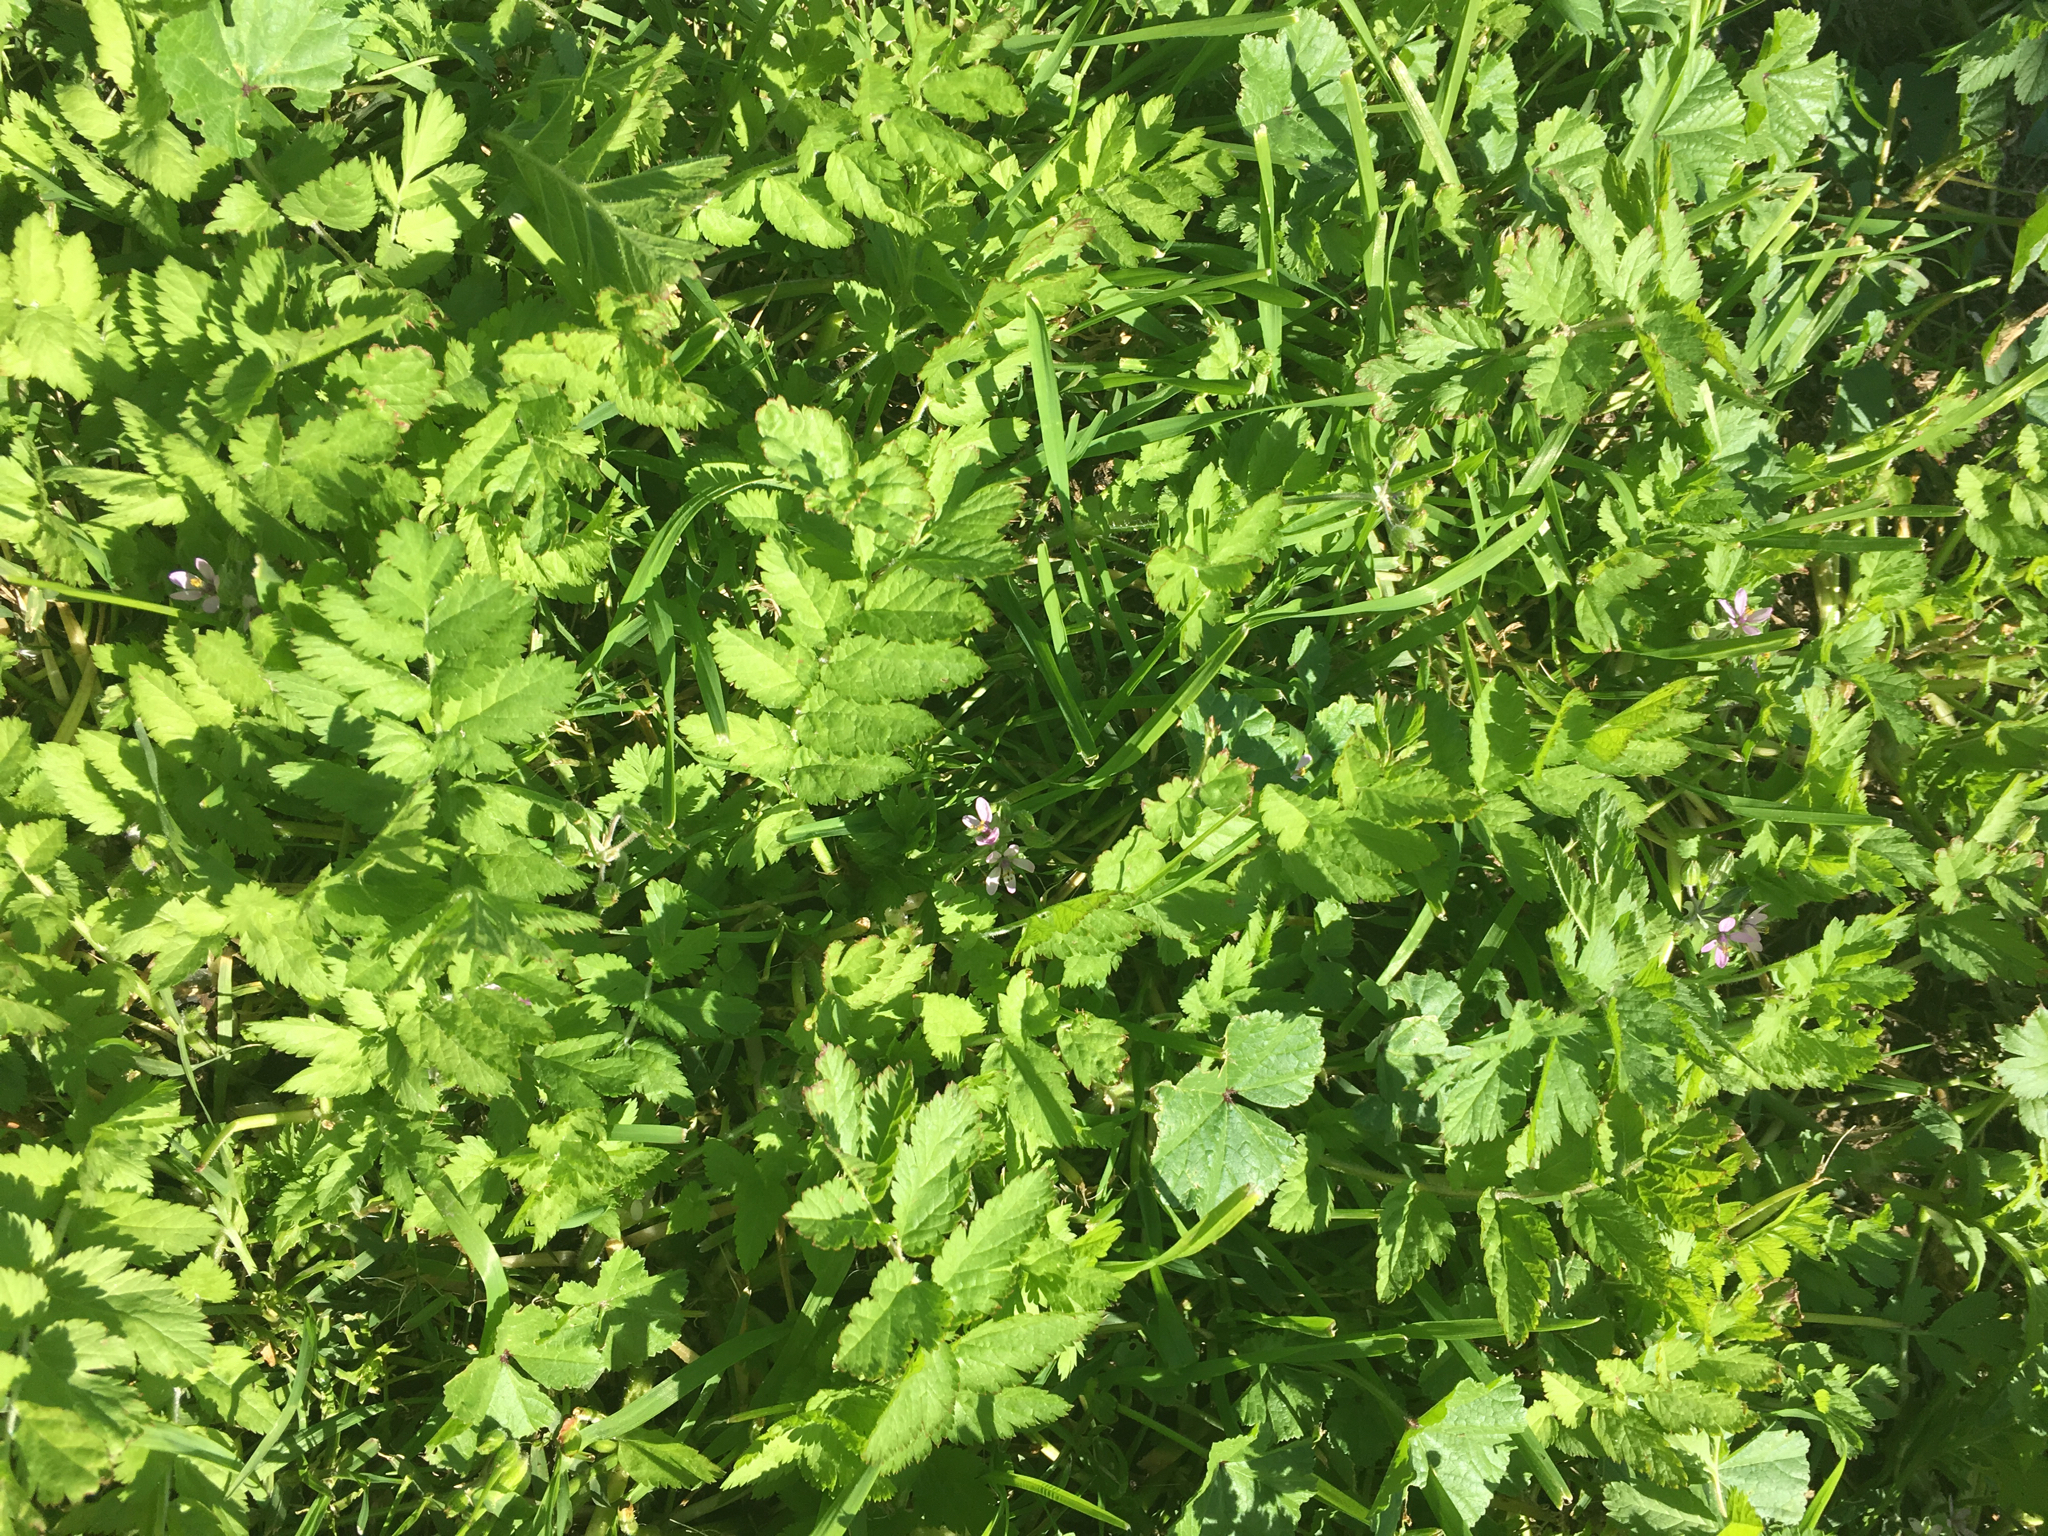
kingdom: Plantae
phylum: Tracheophyta
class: Magnoliopsida
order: Geraniales
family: Geraniaceae
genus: Erodium
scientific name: Erodium moschatum
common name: Musk stork's-bill
